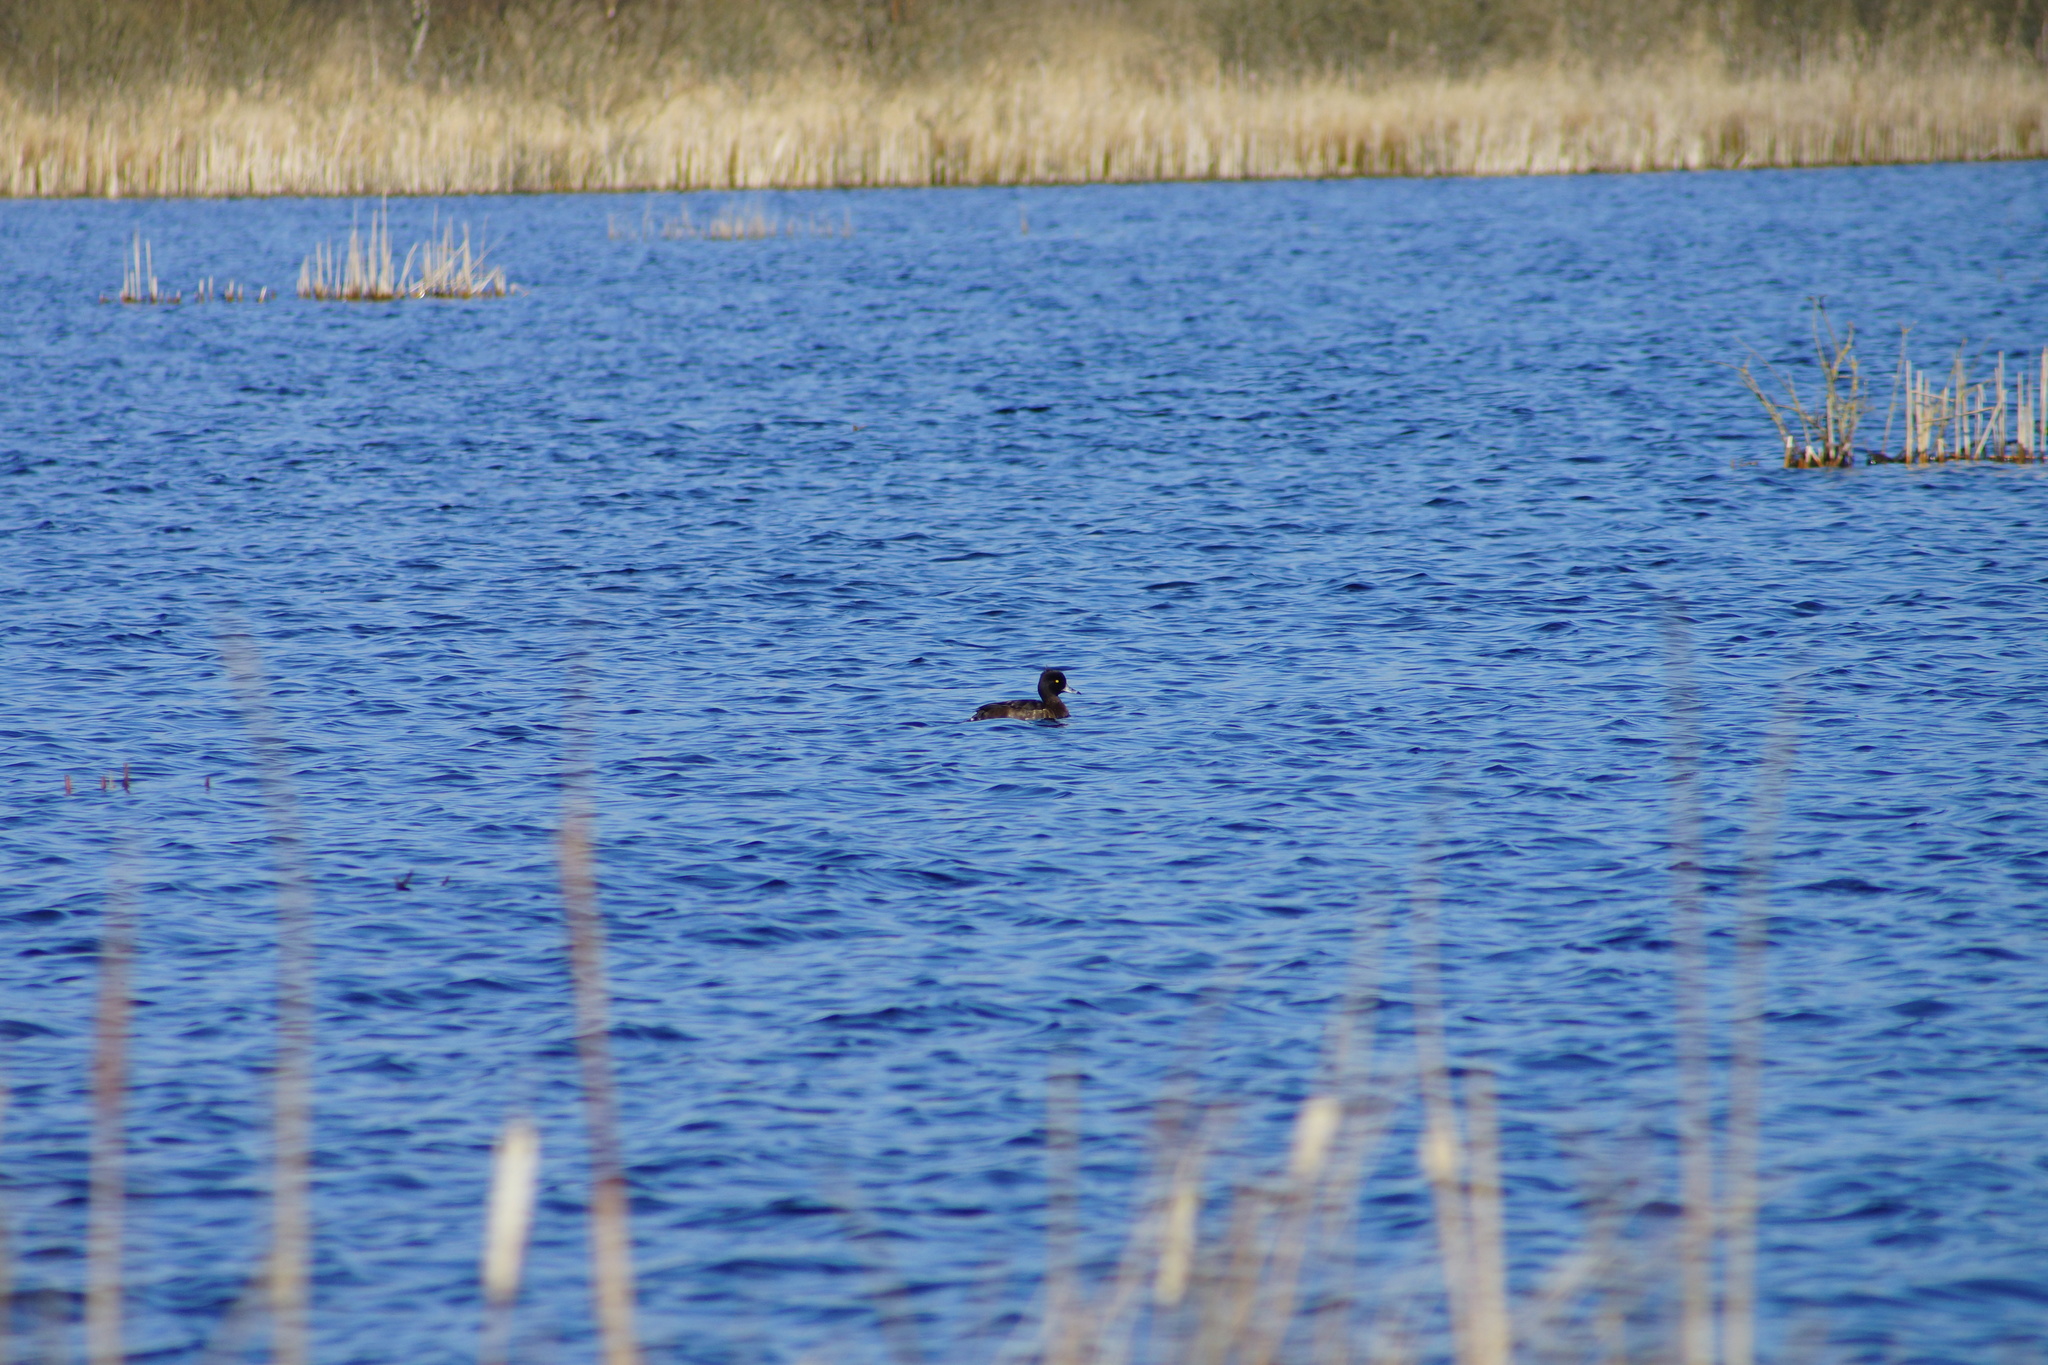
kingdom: Animalia
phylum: Chordata
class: Aves
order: Anseriformes
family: Anatidae
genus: Aythya
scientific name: Aythya fuligula
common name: Tufted duck
